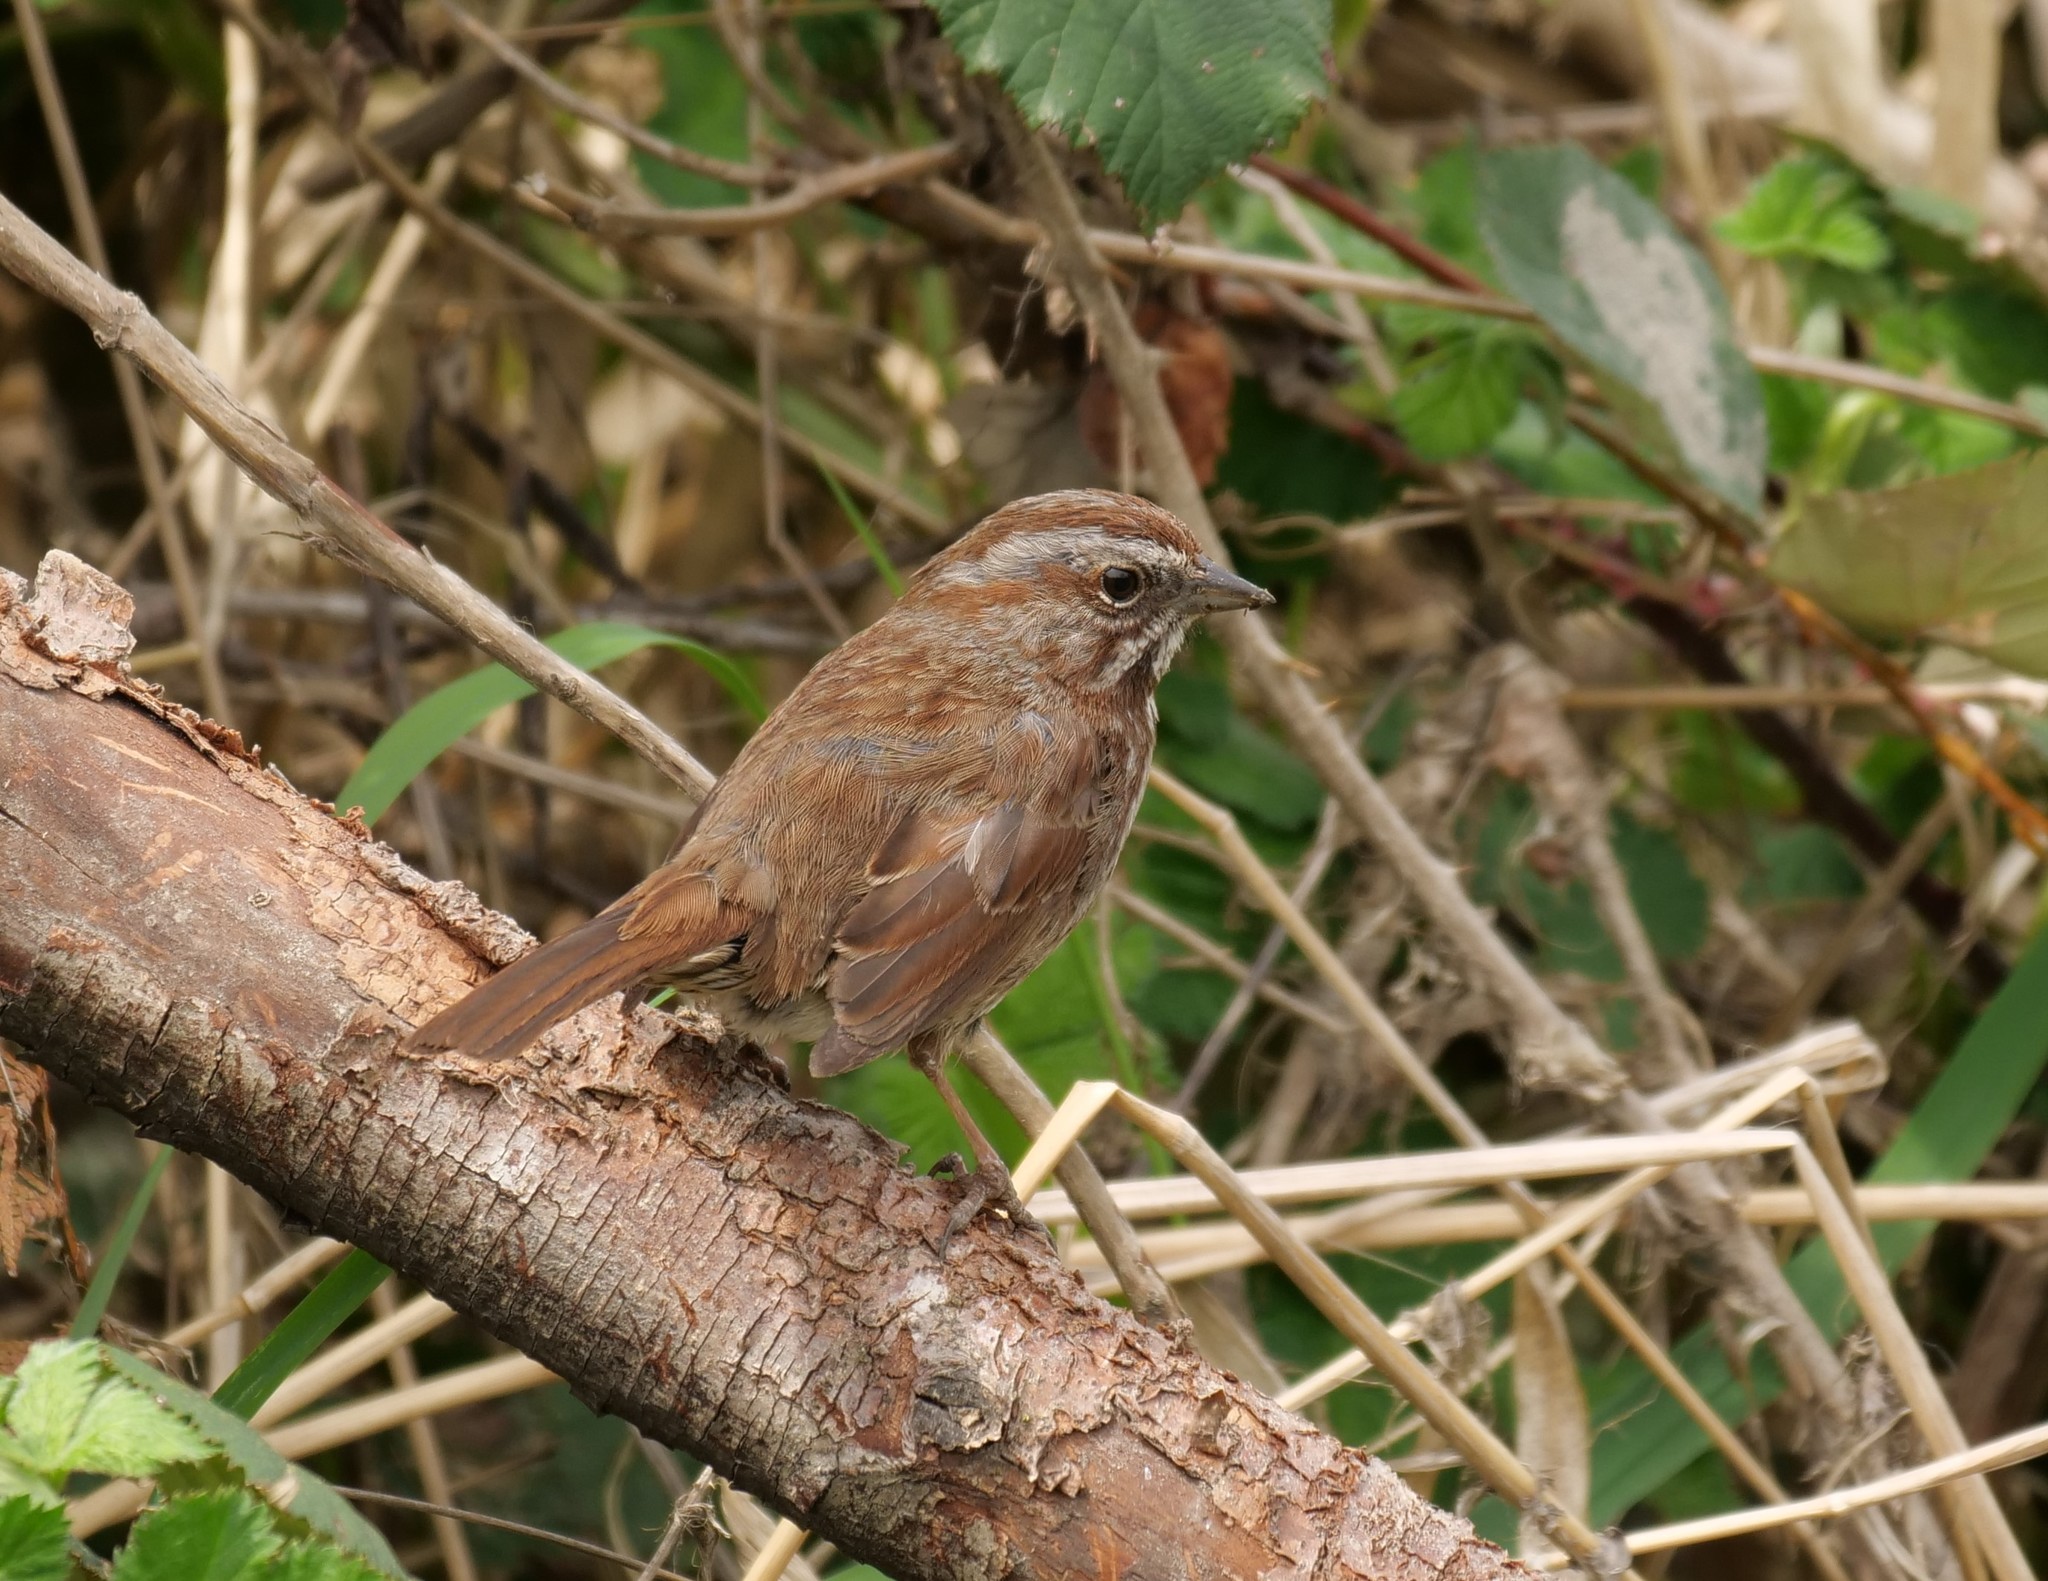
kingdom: Animalia
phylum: Chordata
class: Aves
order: Passeriformes
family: Passerellidae
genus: Melospiza
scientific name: Melospiza melodia
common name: Song sparrow
